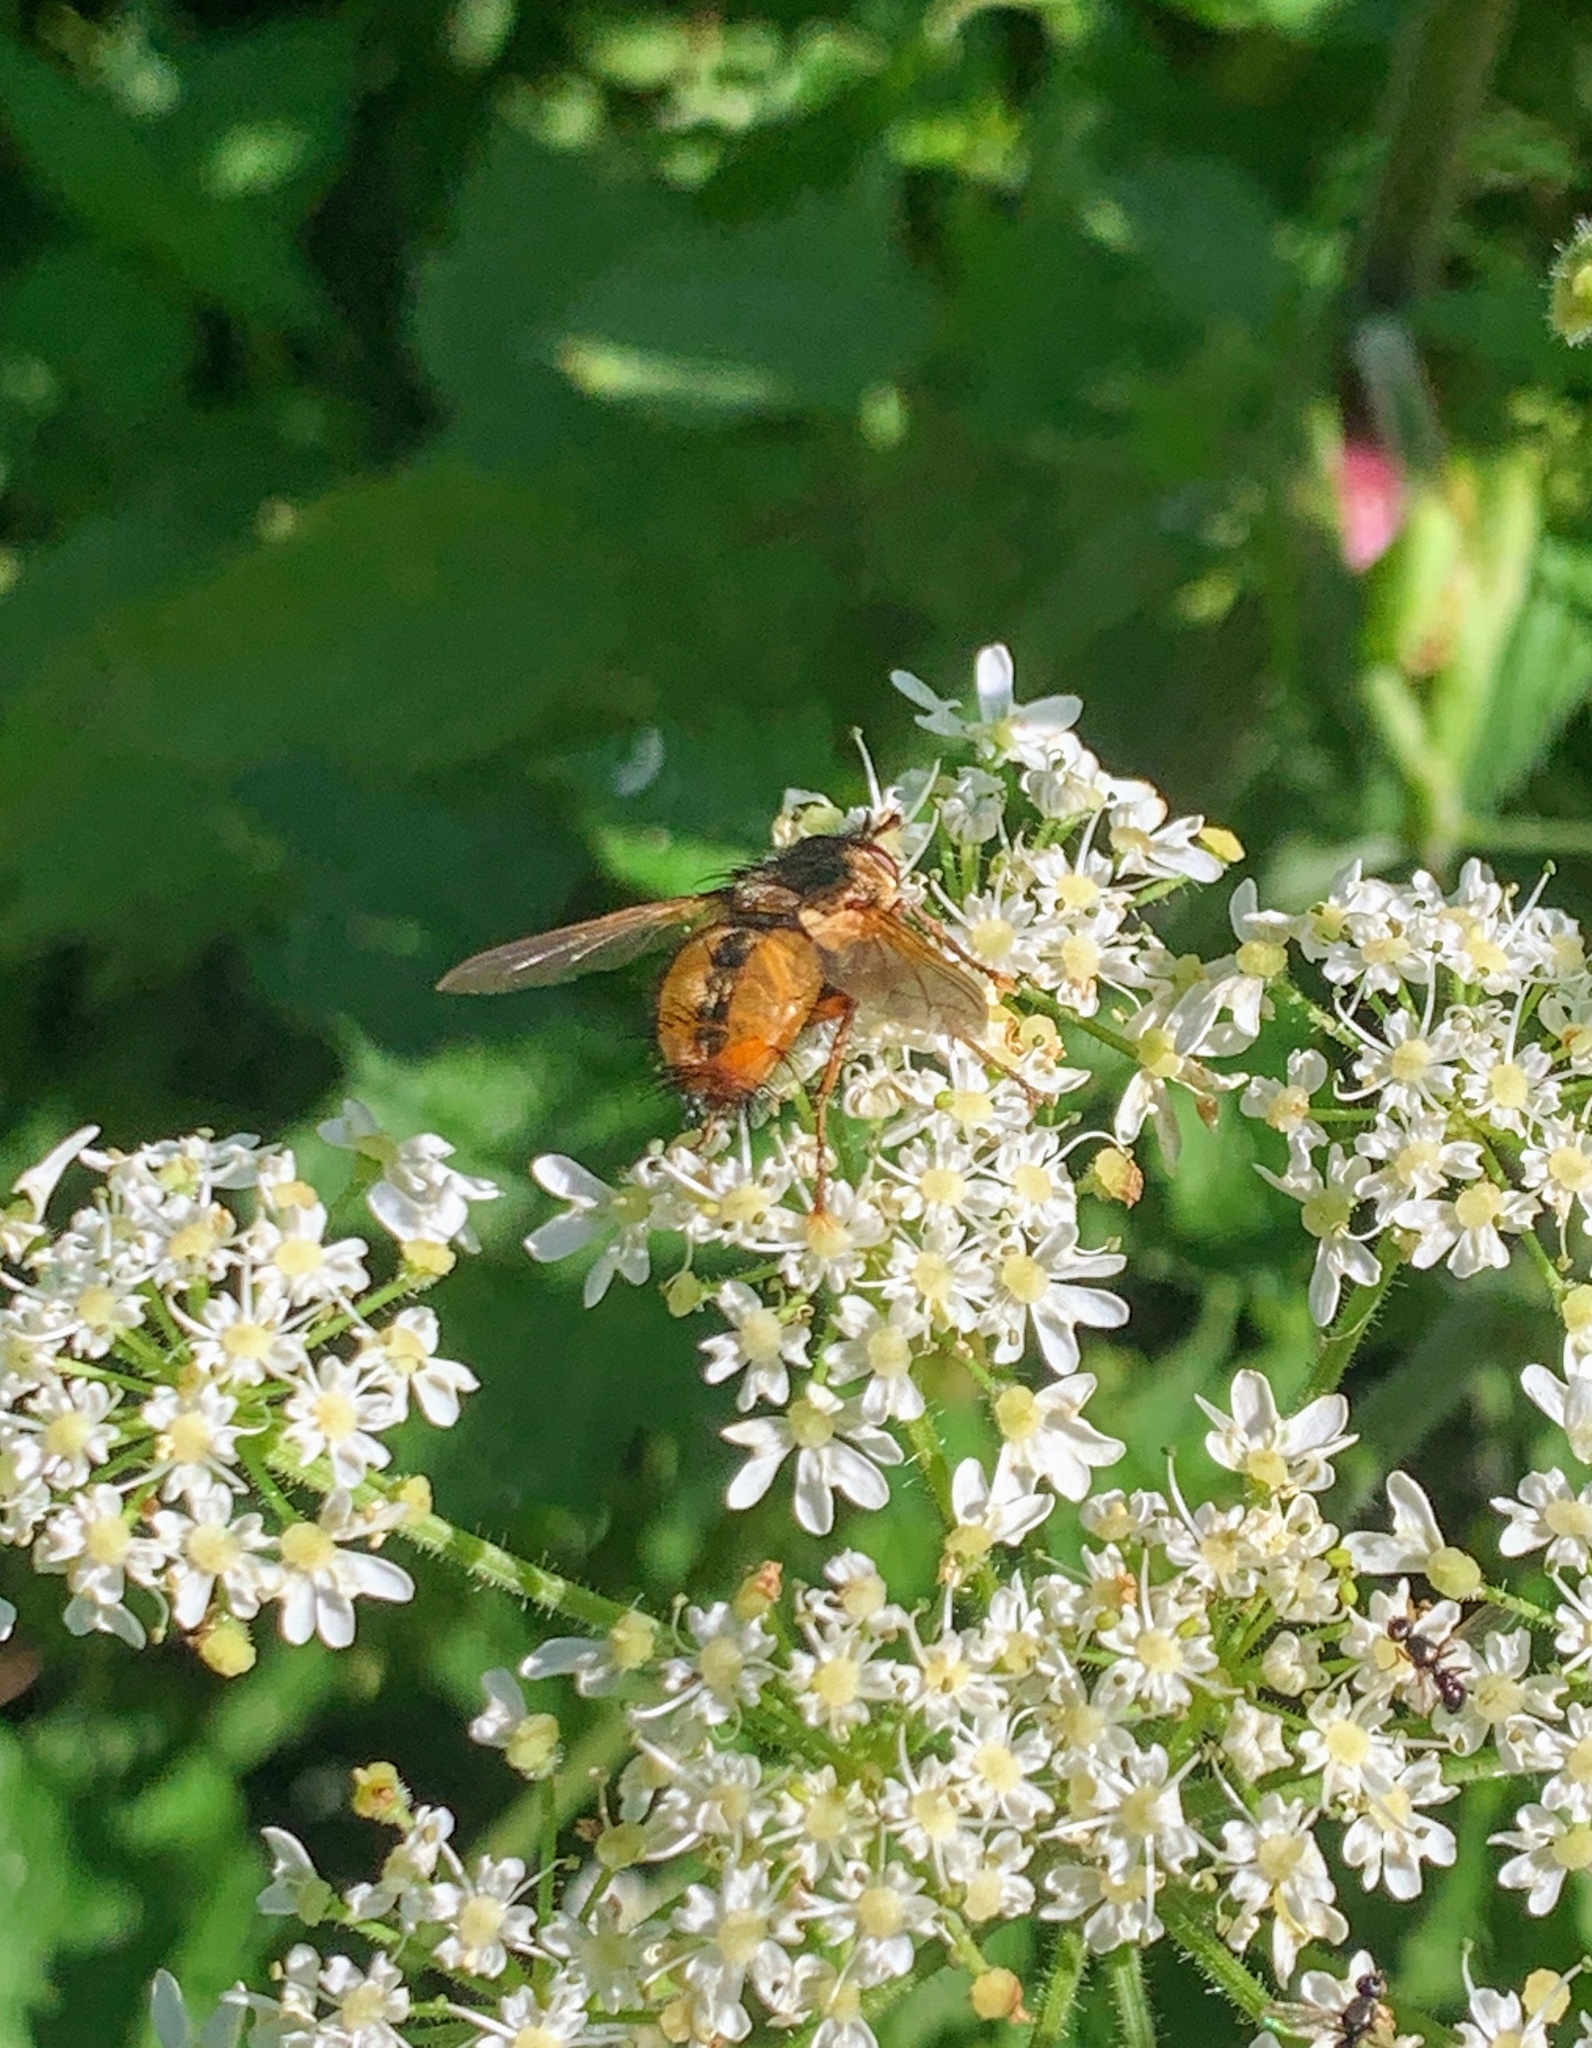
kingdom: Animalia
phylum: Arthropoda
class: Insecta
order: Diptera
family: Tachinidae
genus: Tachina
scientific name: Tachina fera
